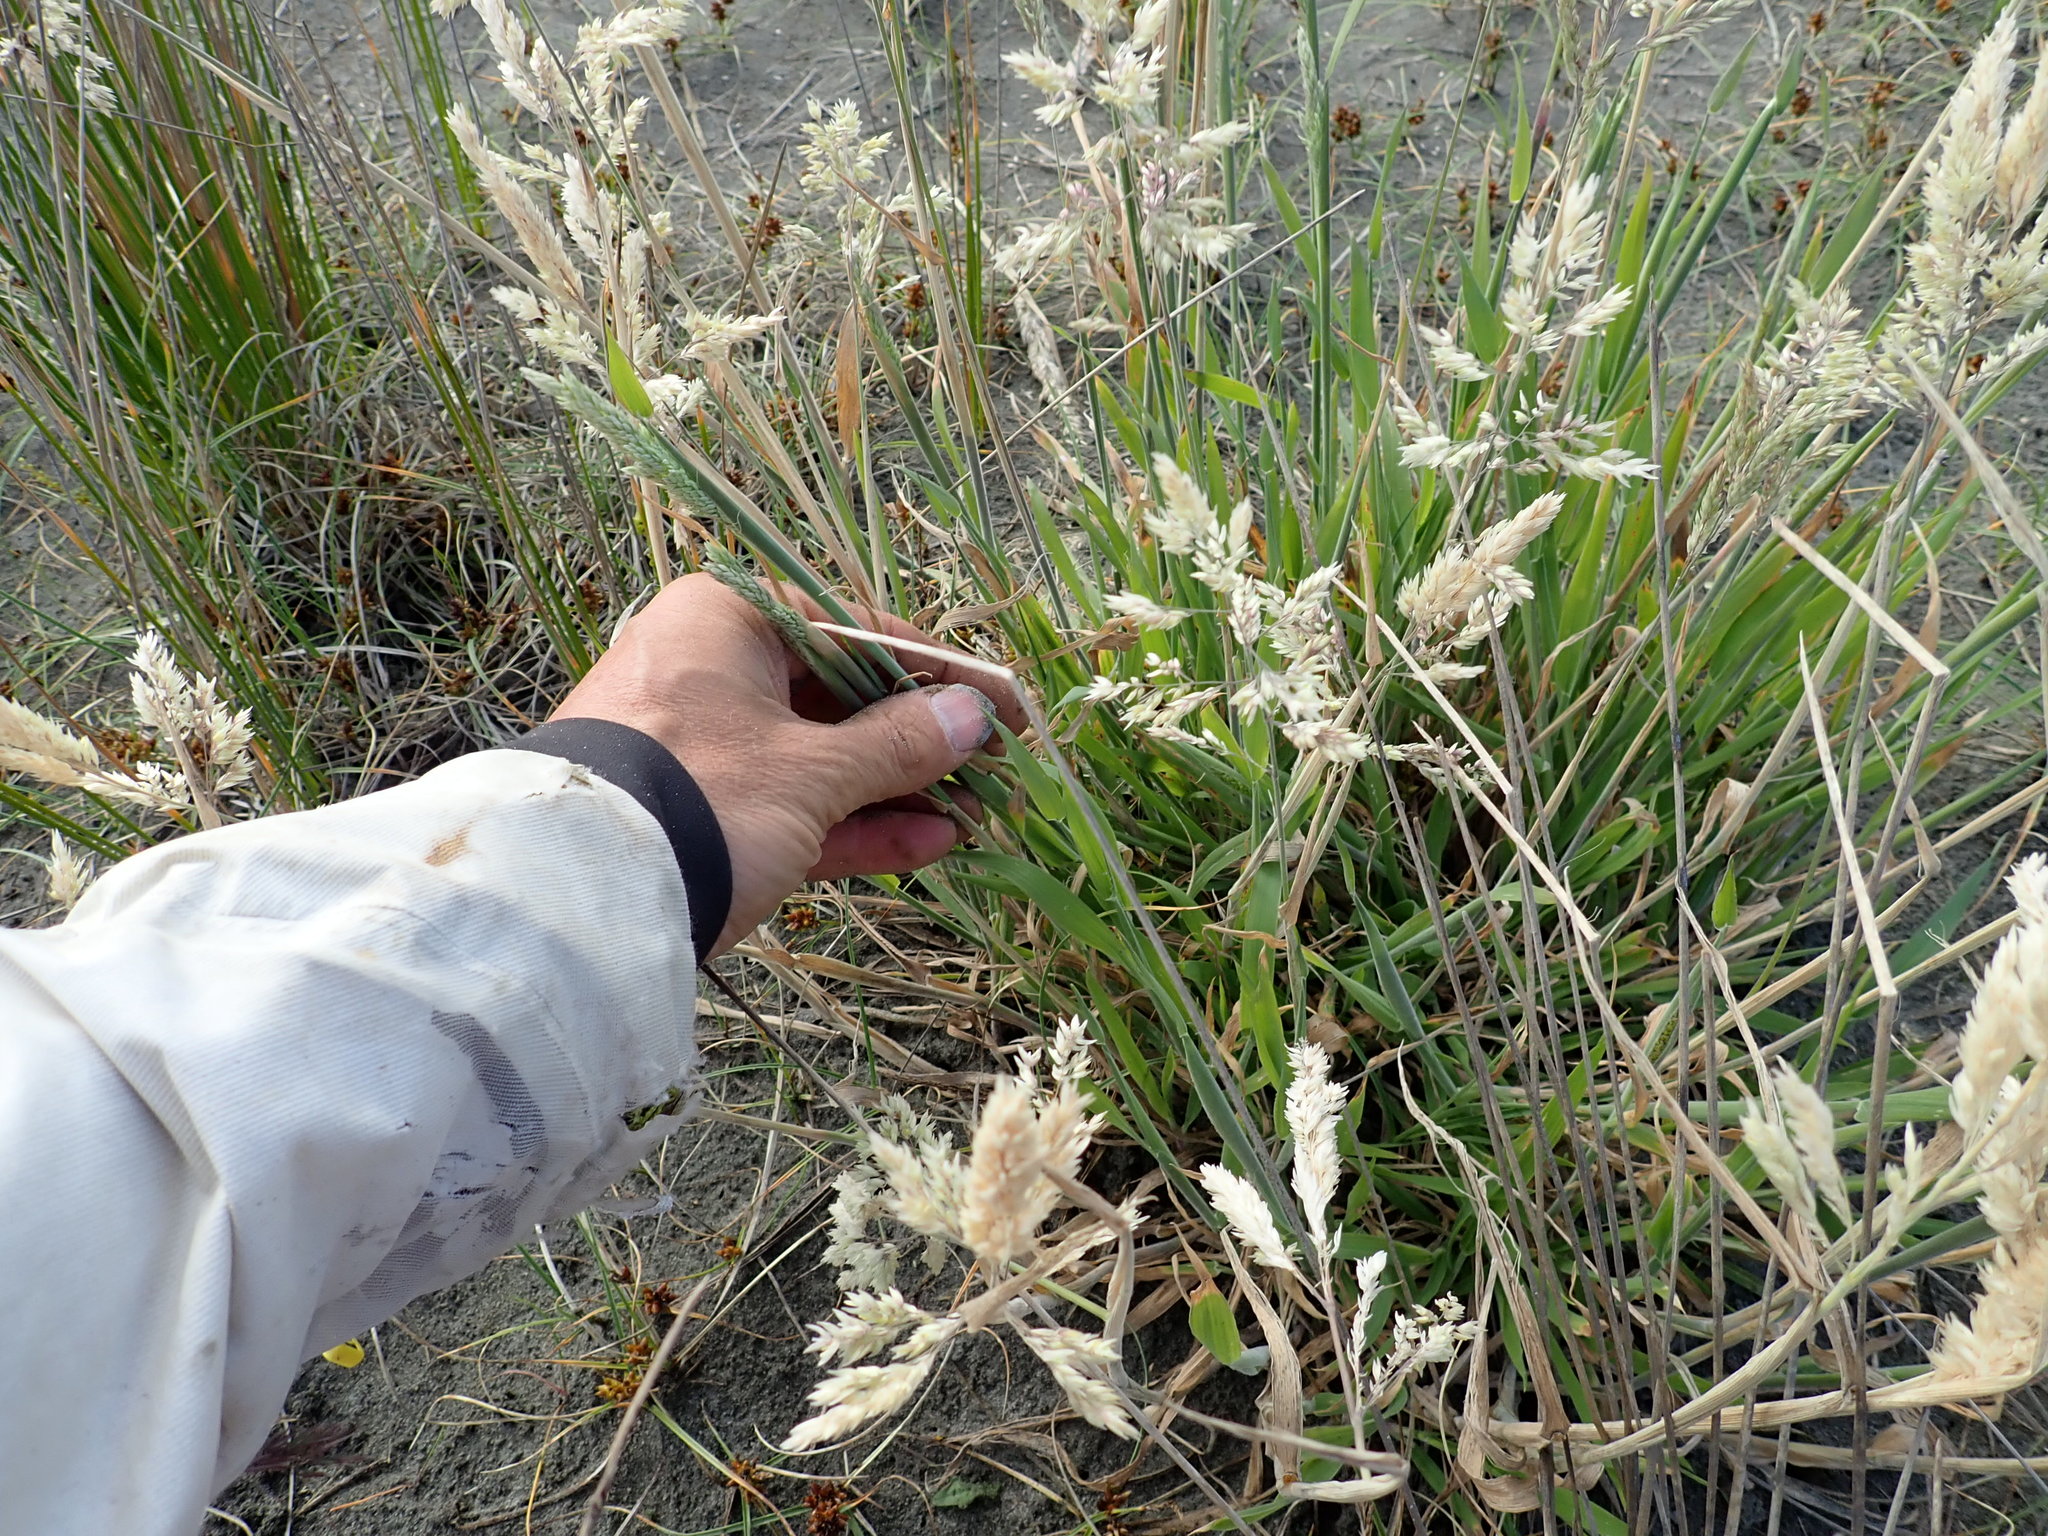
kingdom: Plantae
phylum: Tracheophyta
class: Liliopsida
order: Poales
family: Poaceae
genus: Holcus
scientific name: Holcus lanatus
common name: Yorkshire-fog
